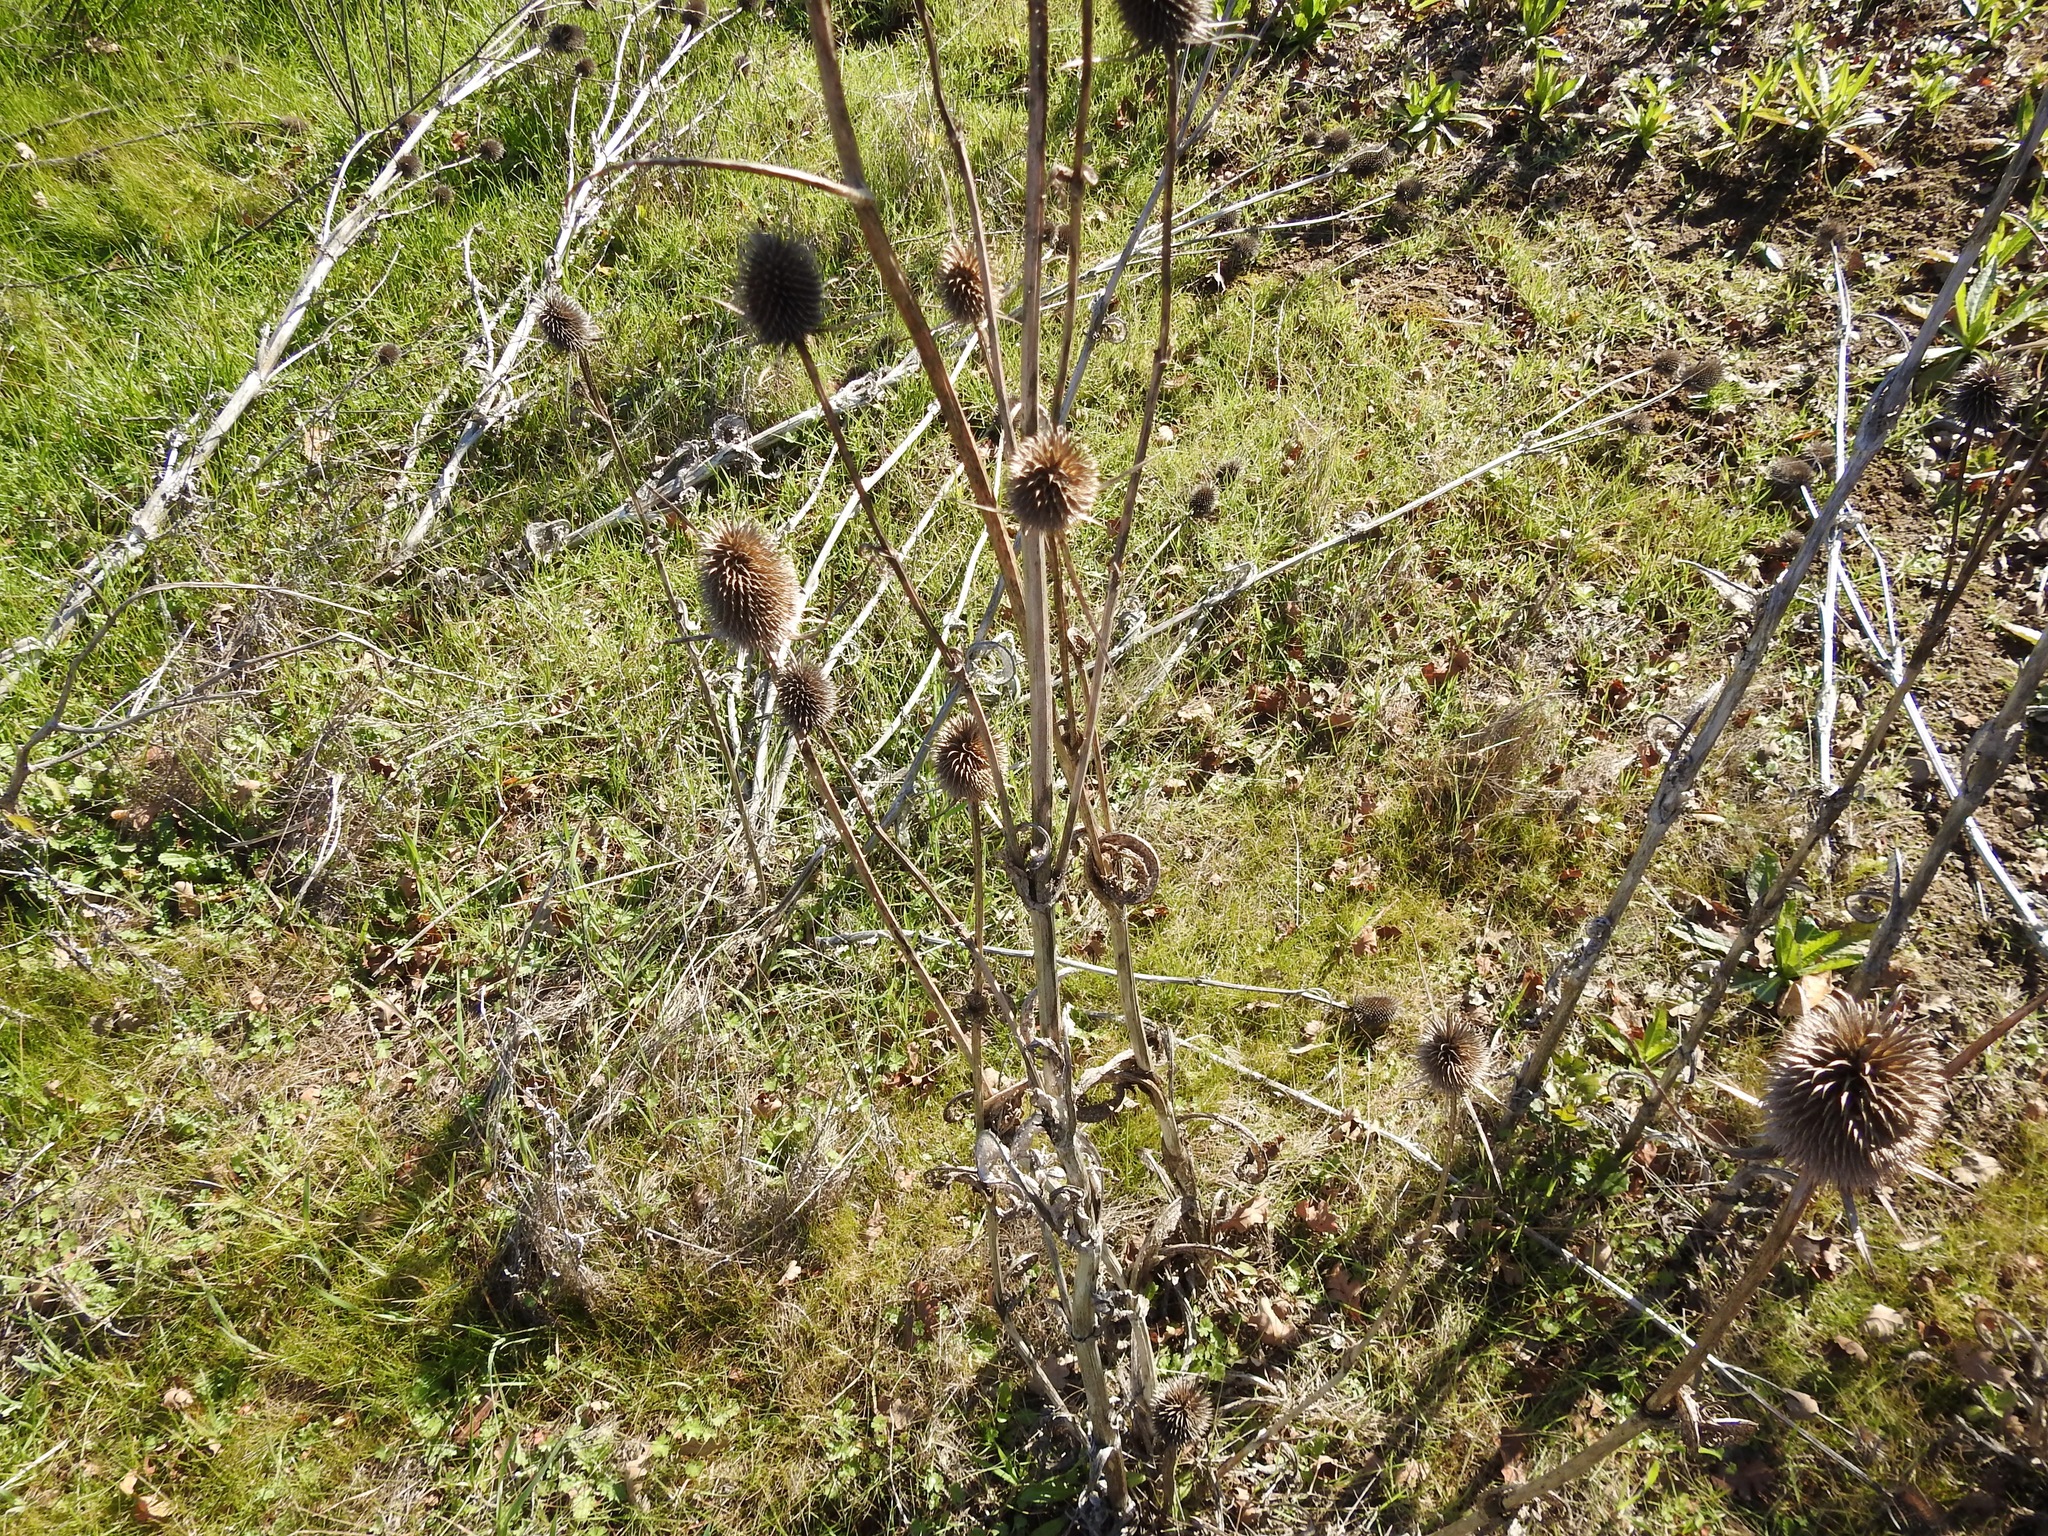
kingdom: Plantae
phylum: Tracheophyta
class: Magnoliopsida
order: Dipsacales
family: Caprifoliaceae
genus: Dipsacus
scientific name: Dipsacus sativus
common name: Fuller's teasel
